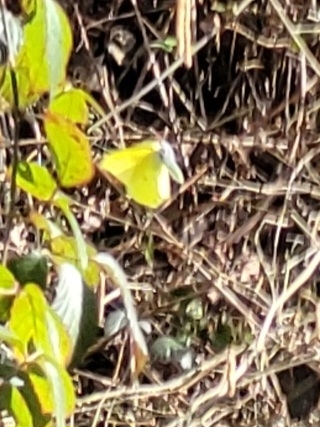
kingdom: Animalia
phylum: Arthropoda
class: Insecta
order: Lepidoptera
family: Pieridae
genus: Gonepteryx
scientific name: Gonepteryx rhamni
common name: Brimstone
